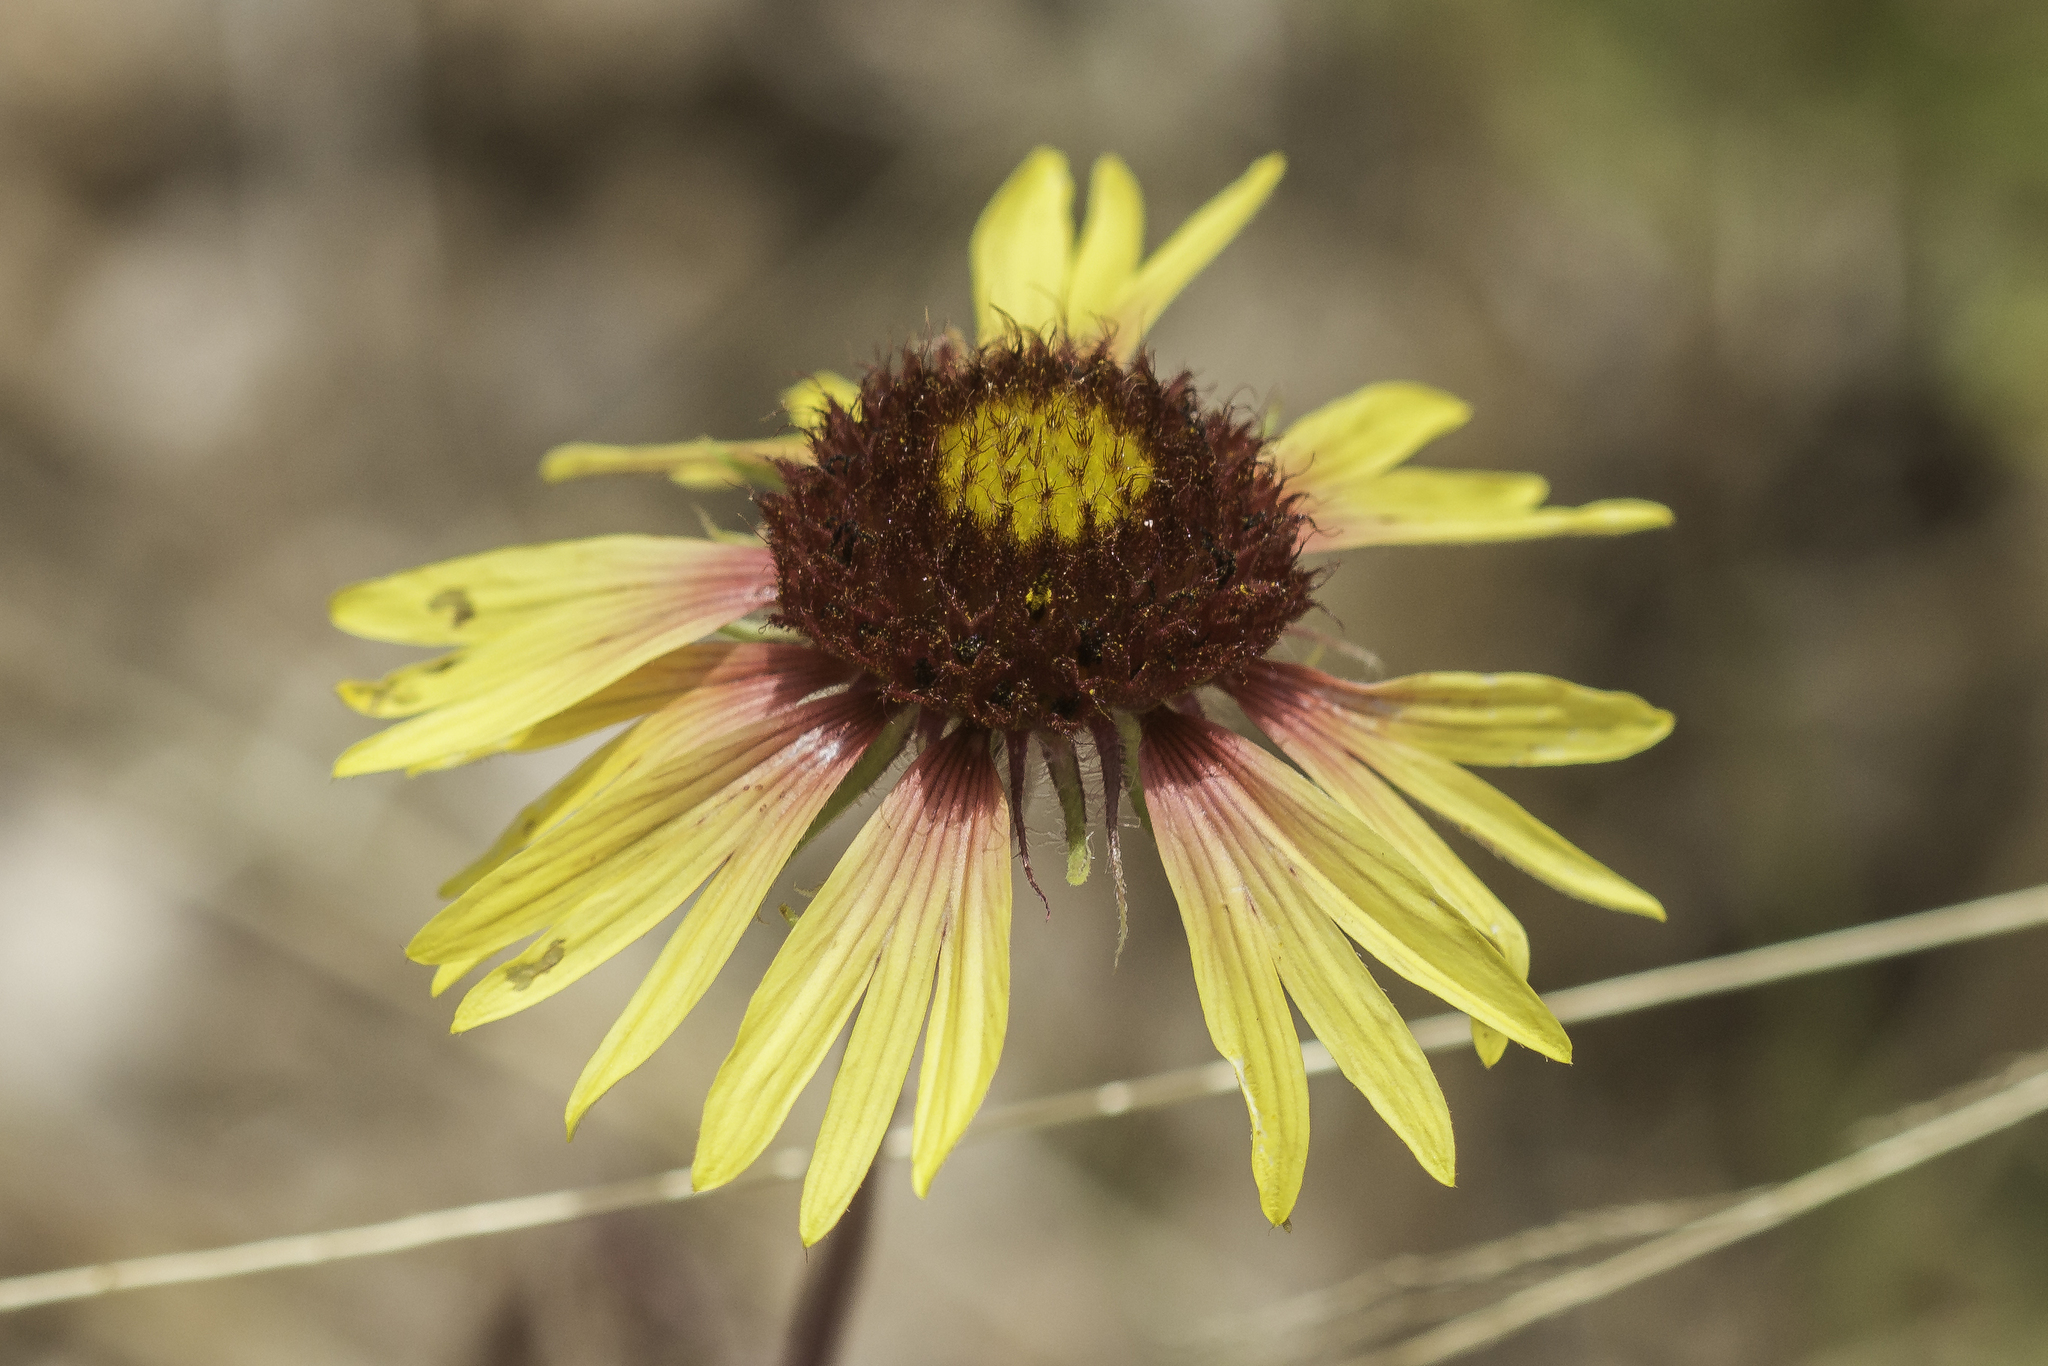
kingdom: Plantae
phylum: Tracheophyta
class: Magnoliopsida
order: Asterales
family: Asteraceae
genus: Gaillardia
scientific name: Gaillardia pulchella
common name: Firewheel
